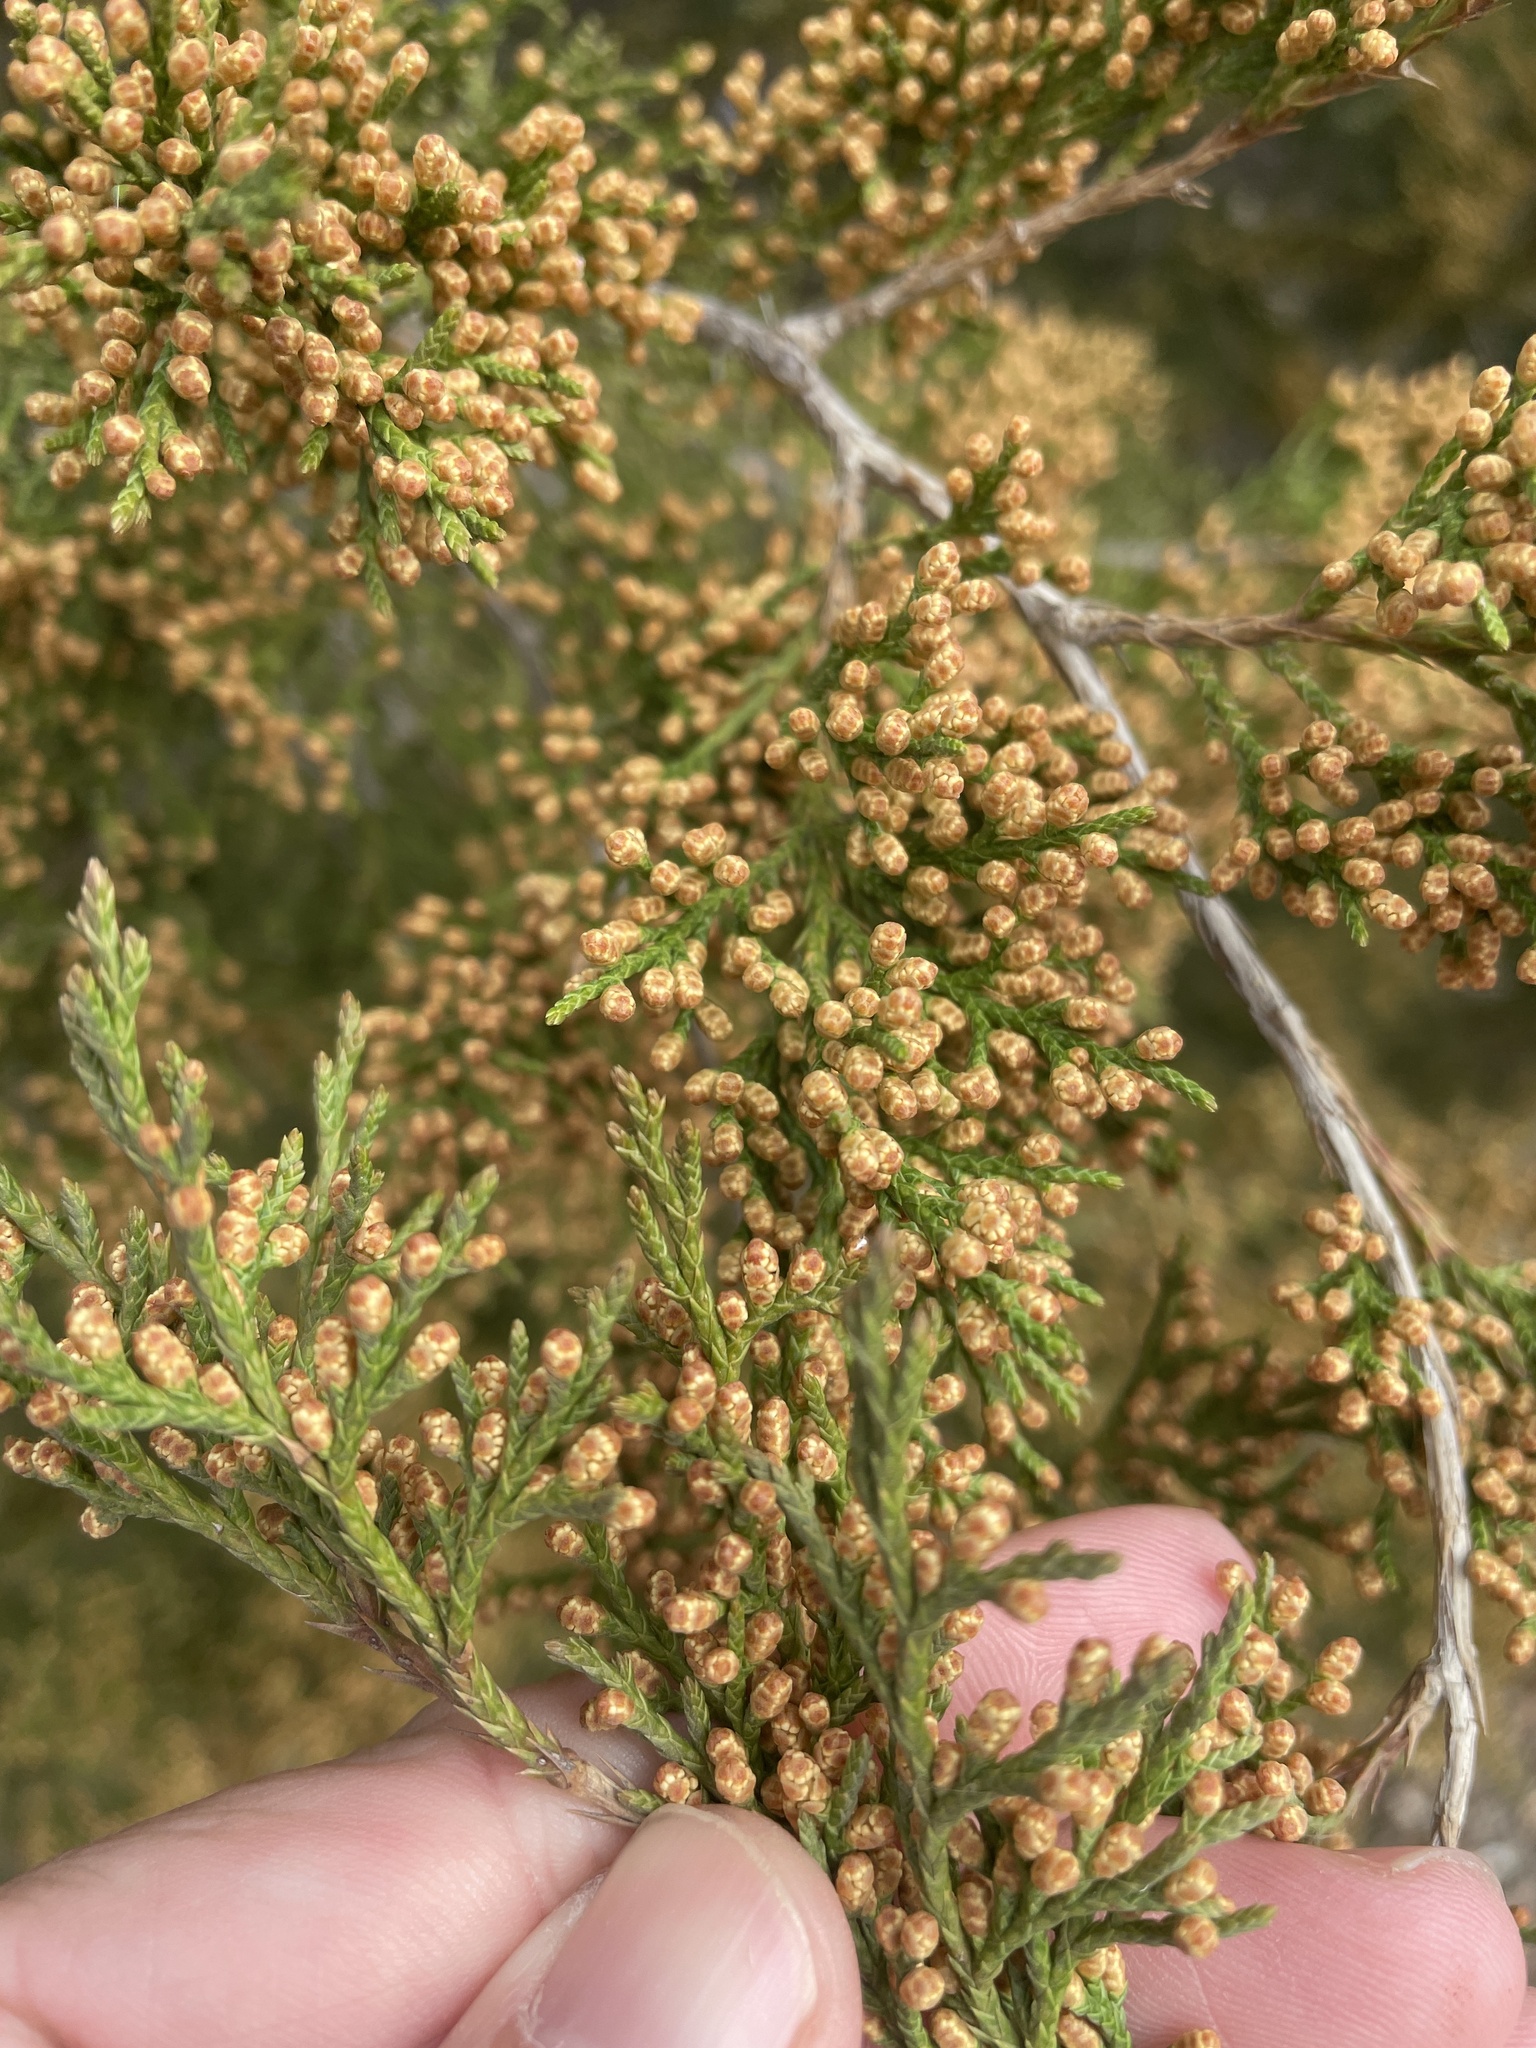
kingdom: Plantae
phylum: Tracheophyta
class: Pinopsida
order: Pinales
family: Cupressaceae
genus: Juniperus
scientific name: Juniperus virginiana
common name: Red juniper
